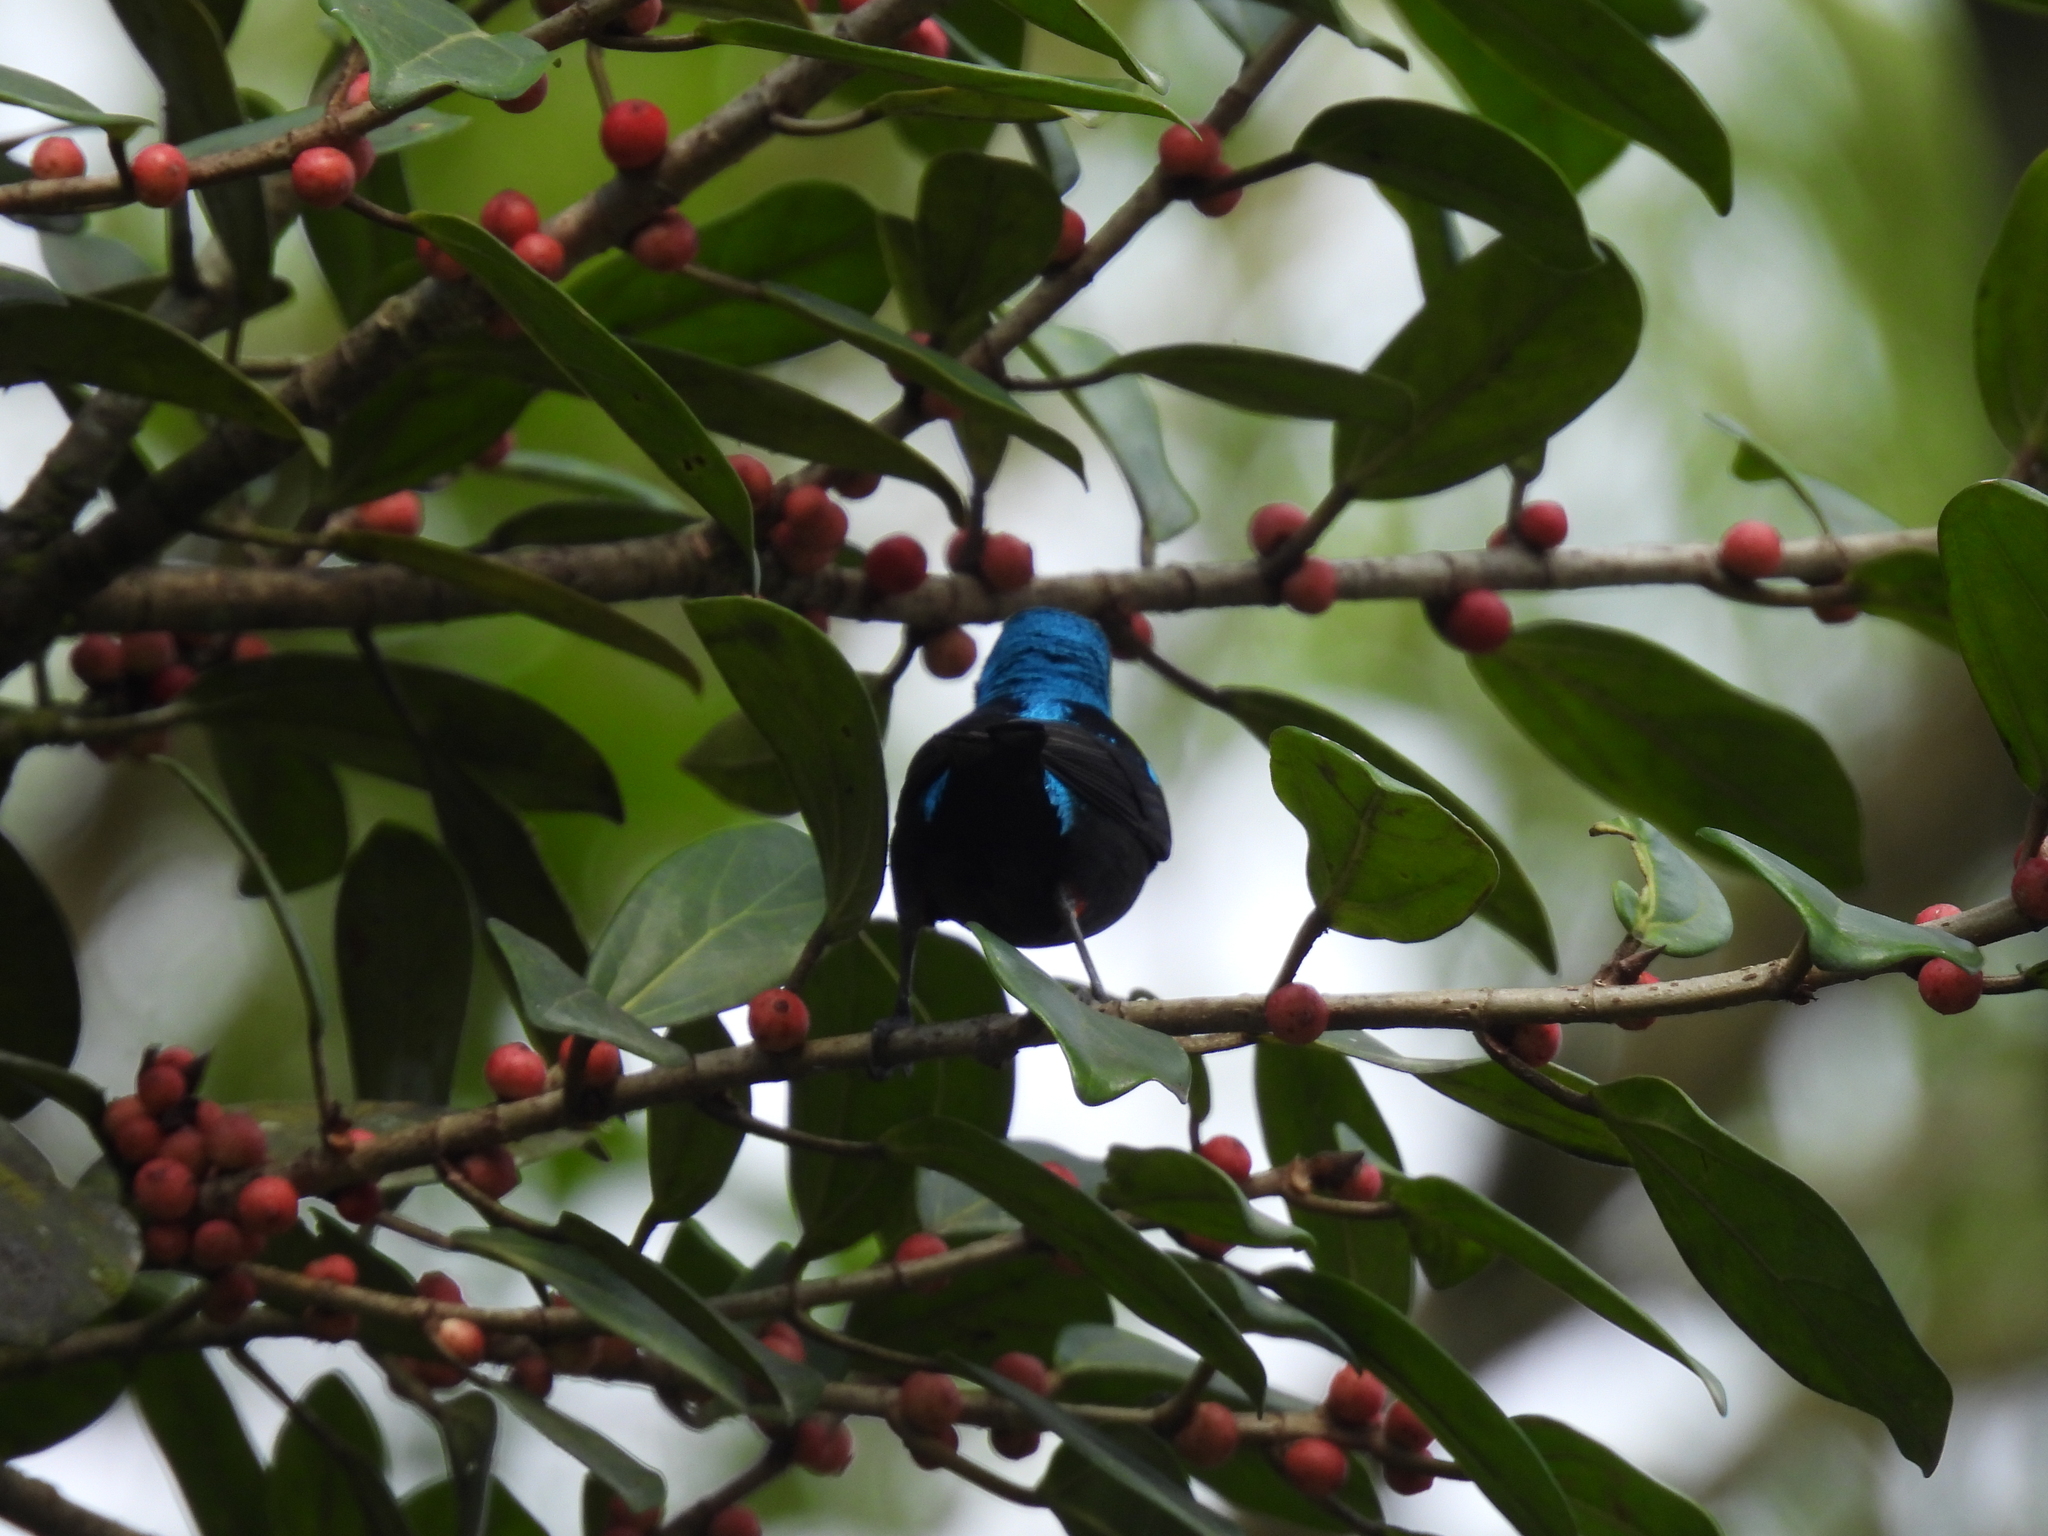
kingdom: Animalia
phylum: Chordata
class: Aves
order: Passeriformes
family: Thraupidae
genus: Dacnis
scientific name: Dacnis venusta
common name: Scarlet-thighed dacnis
